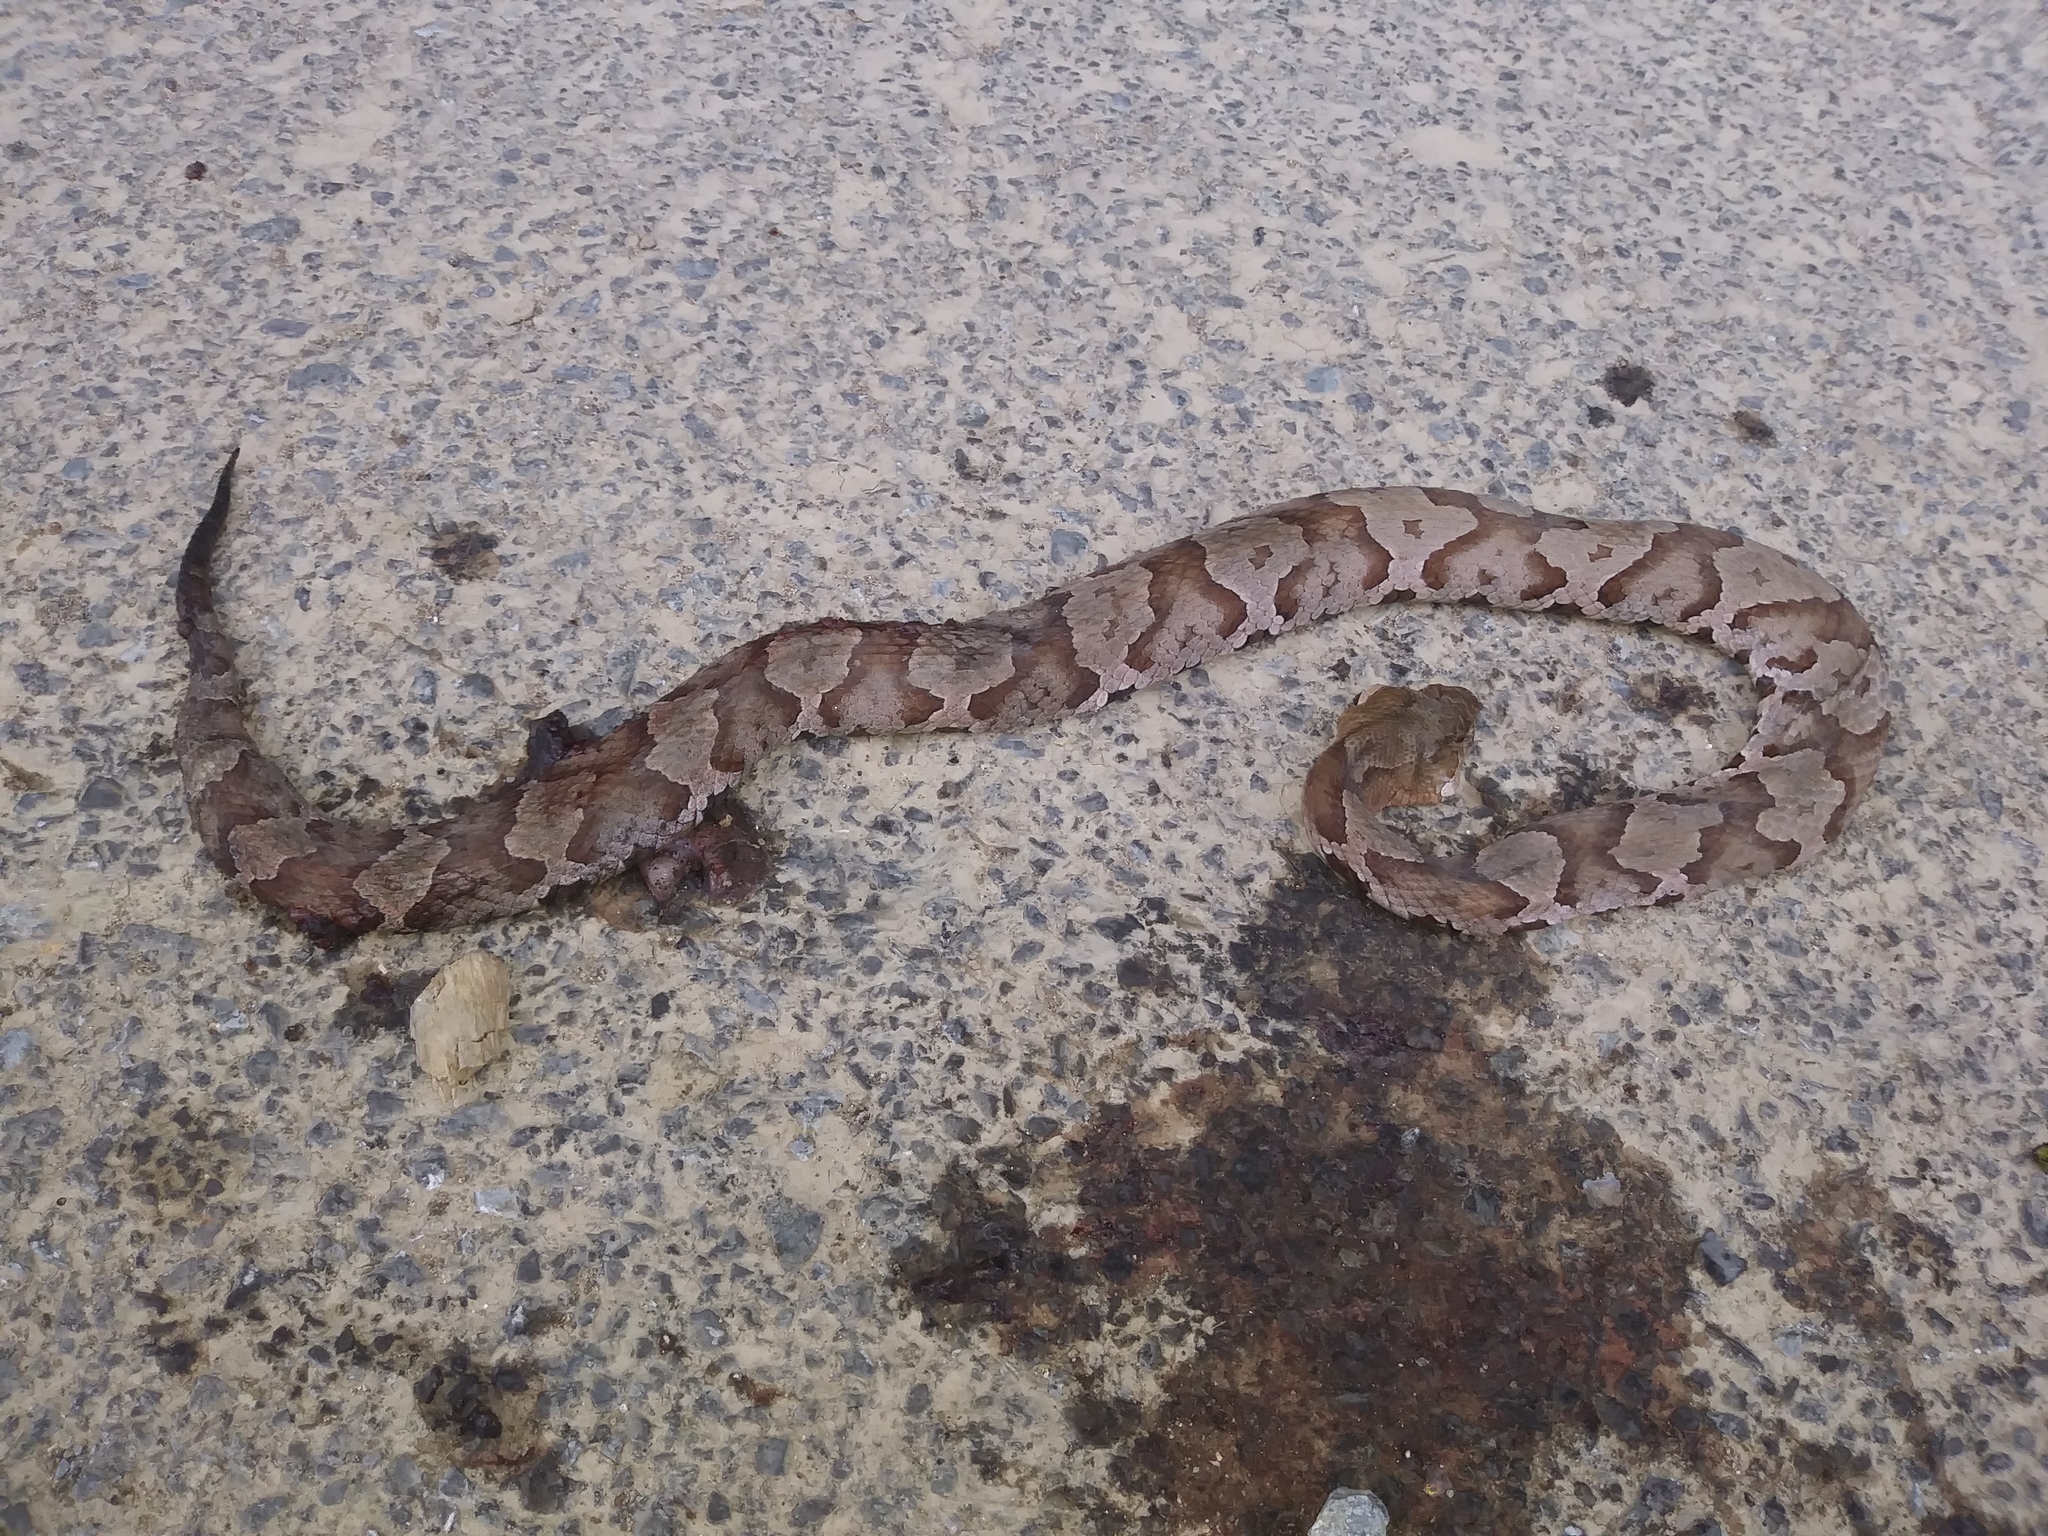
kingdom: Animalia
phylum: Chordata
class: Squamata
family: Viperidae
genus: Agkistrodon
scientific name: Agkistrodon contortrix
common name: Northern copperhead
